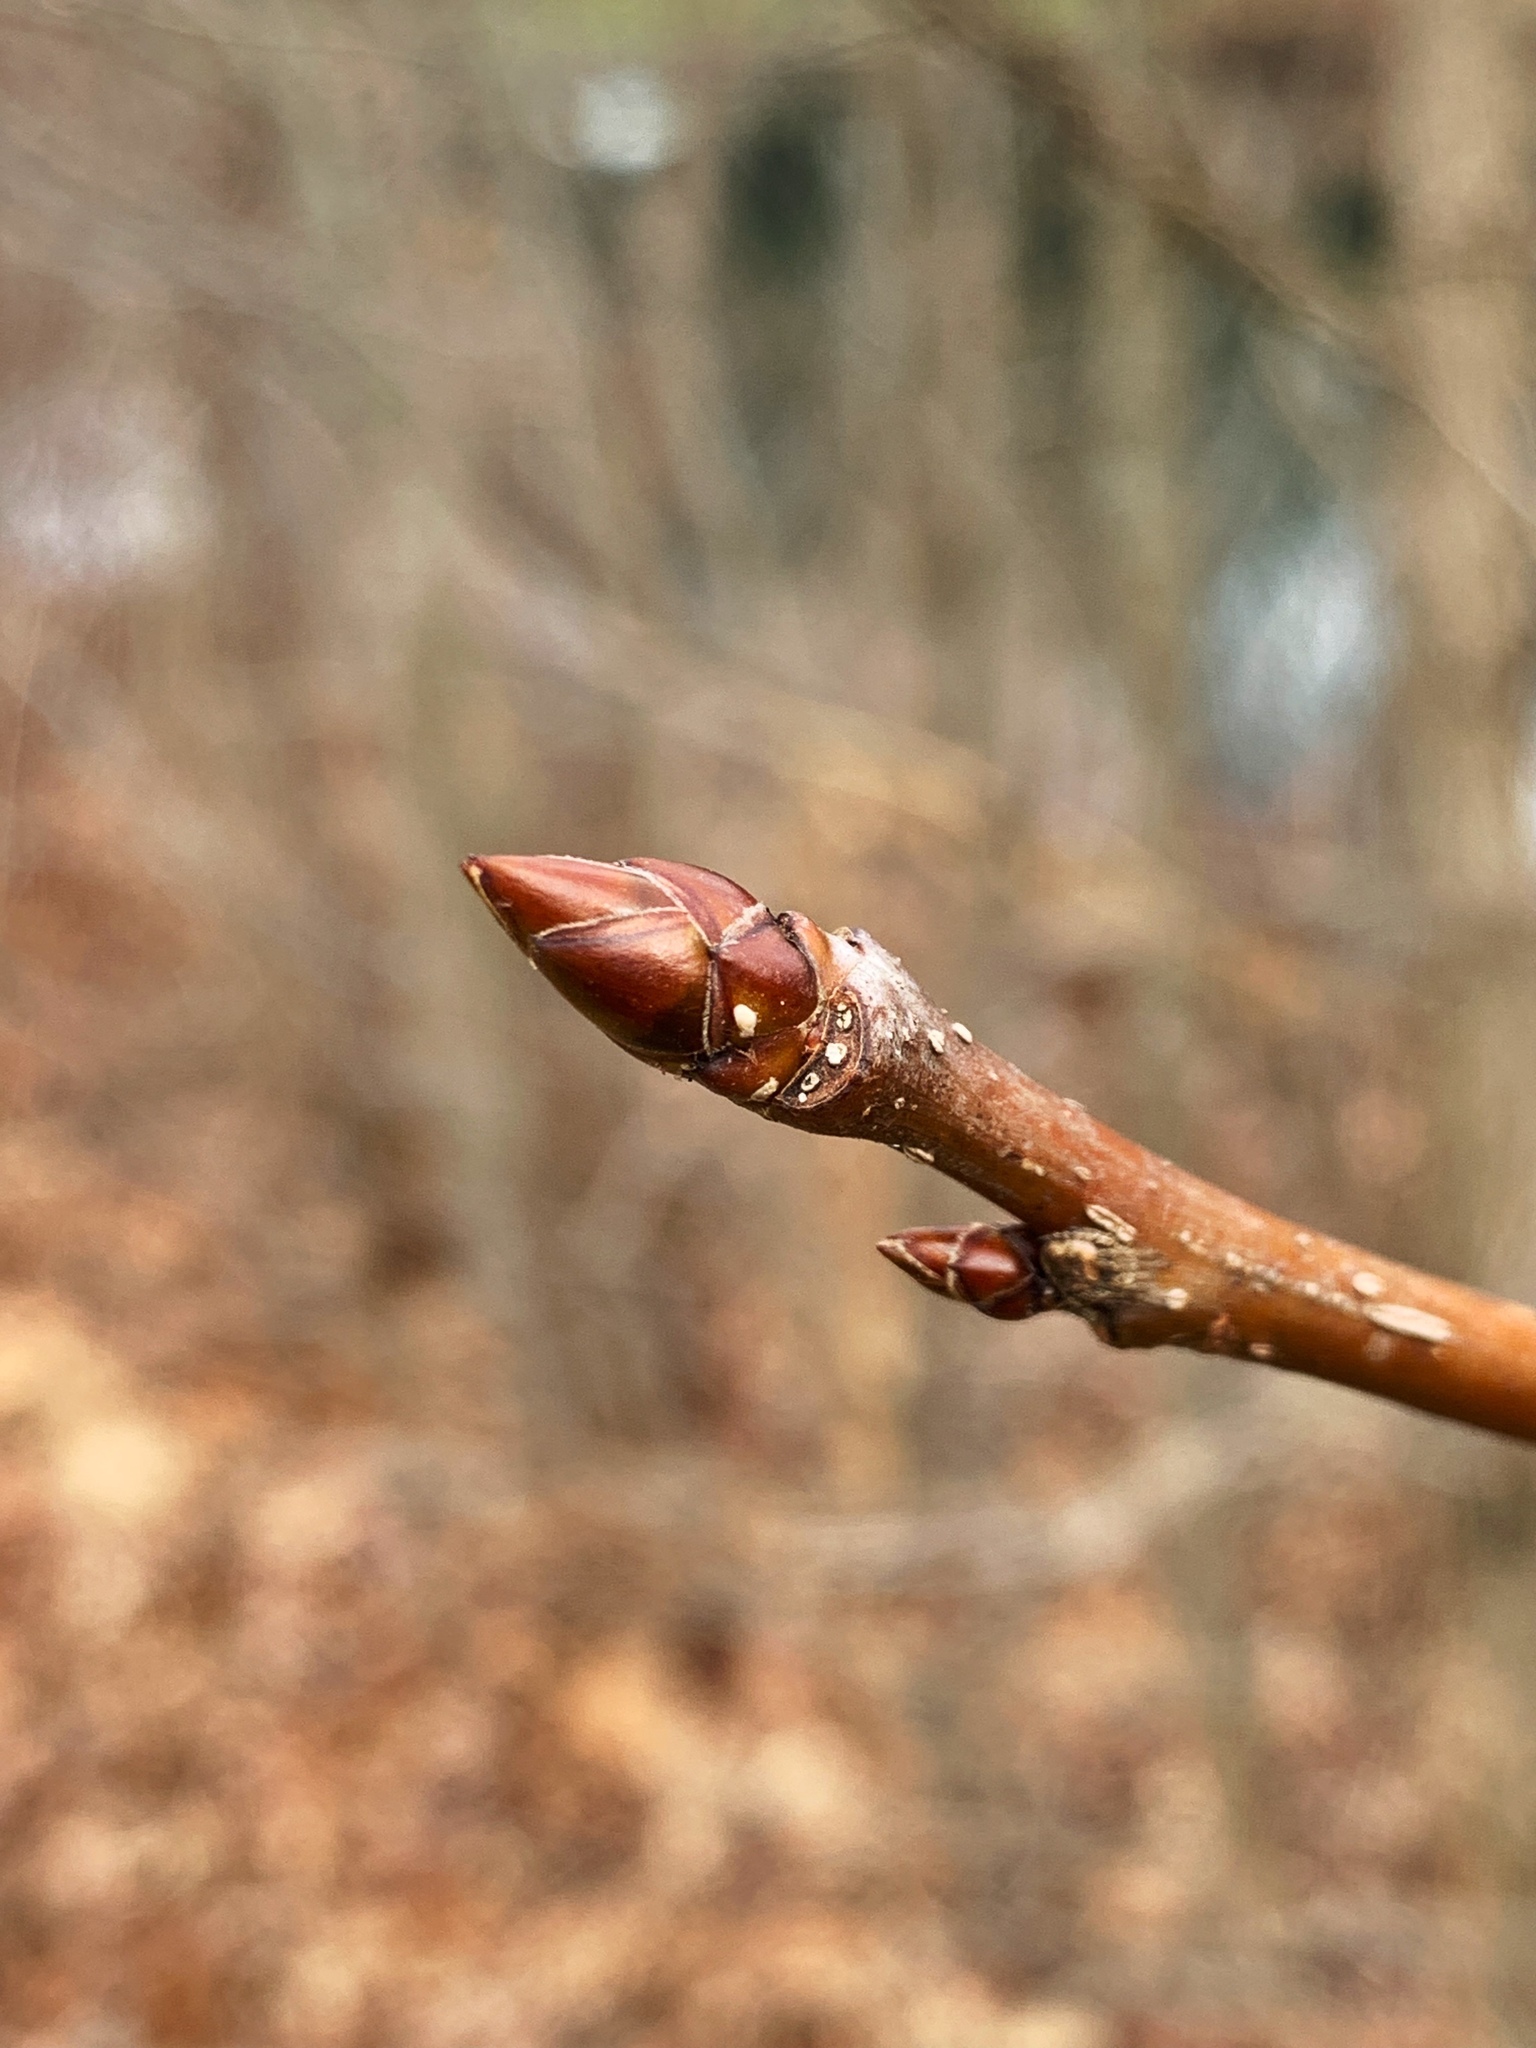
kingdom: Plantae
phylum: Tracheophyta
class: Magnoliopsida
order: Saxifragales
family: Altingiaceae
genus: Liquidambar
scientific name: Liquidambar styraciflua
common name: Sweet gum
